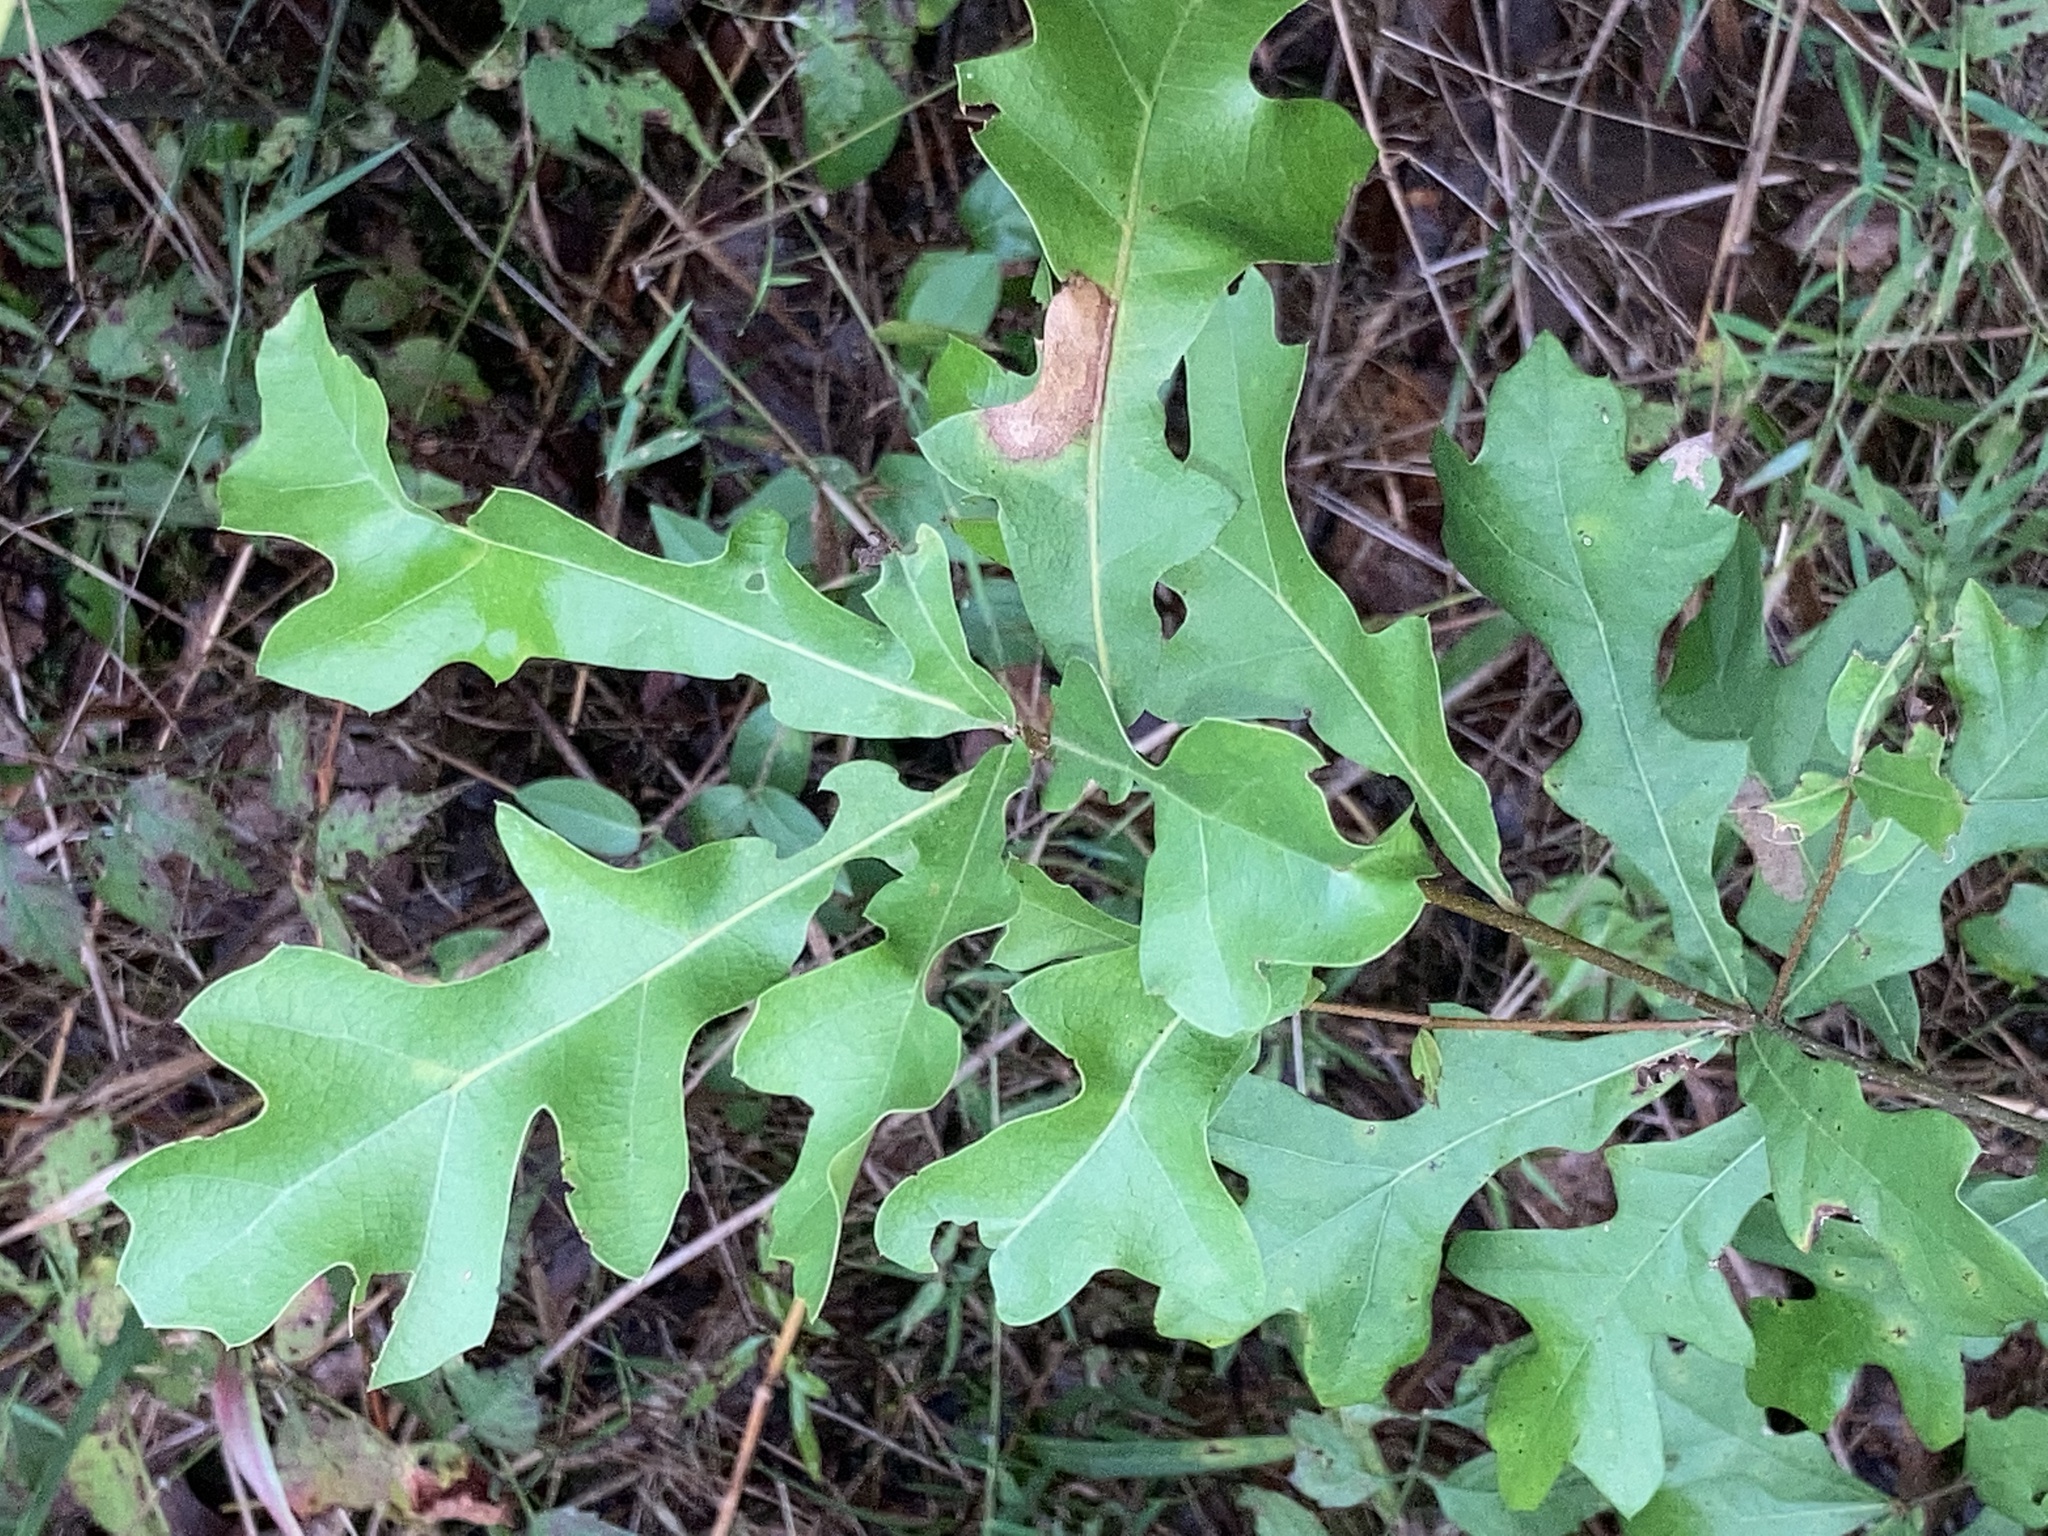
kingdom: Plantae
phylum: Tracheophyta
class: Magnoliopsida
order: Fagales
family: Fagaceae
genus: Quercus
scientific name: Quercus nigra
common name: Water oak
